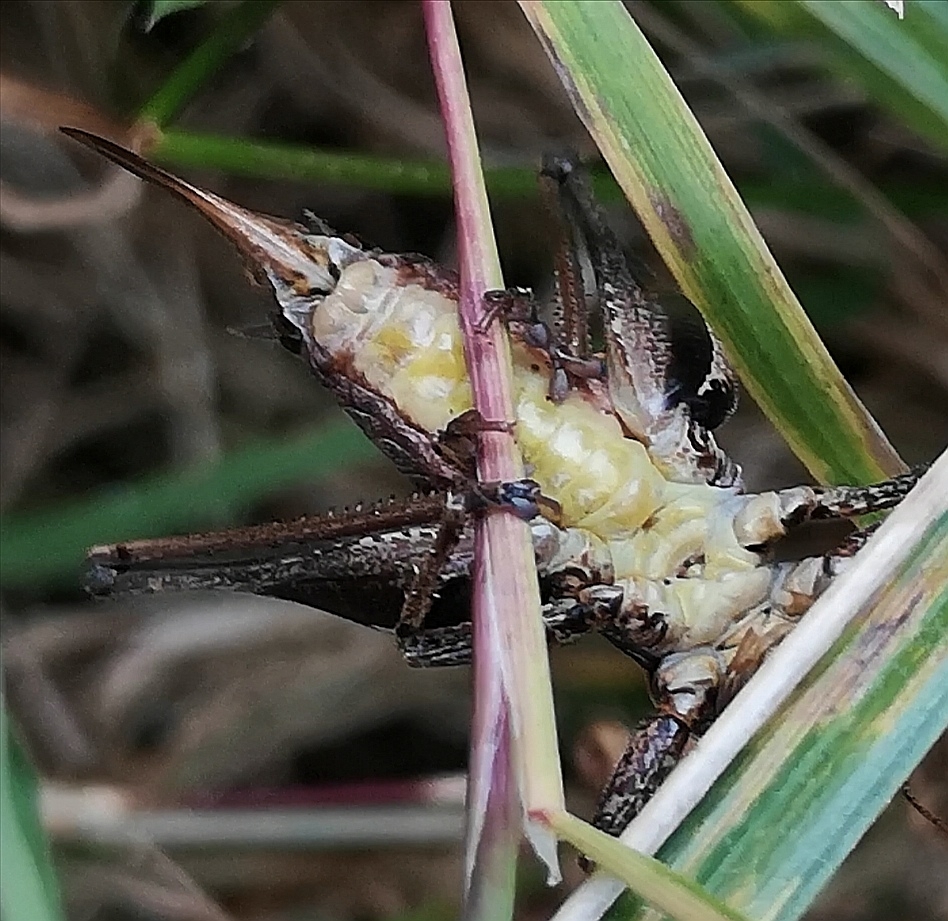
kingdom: Animalia
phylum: Arthropoda
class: Insecta
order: Orthoptera
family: Tettigoniidae
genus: Pholidoptera
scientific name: Pholidoptera griseoaptera
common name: Dark bush-cricket
